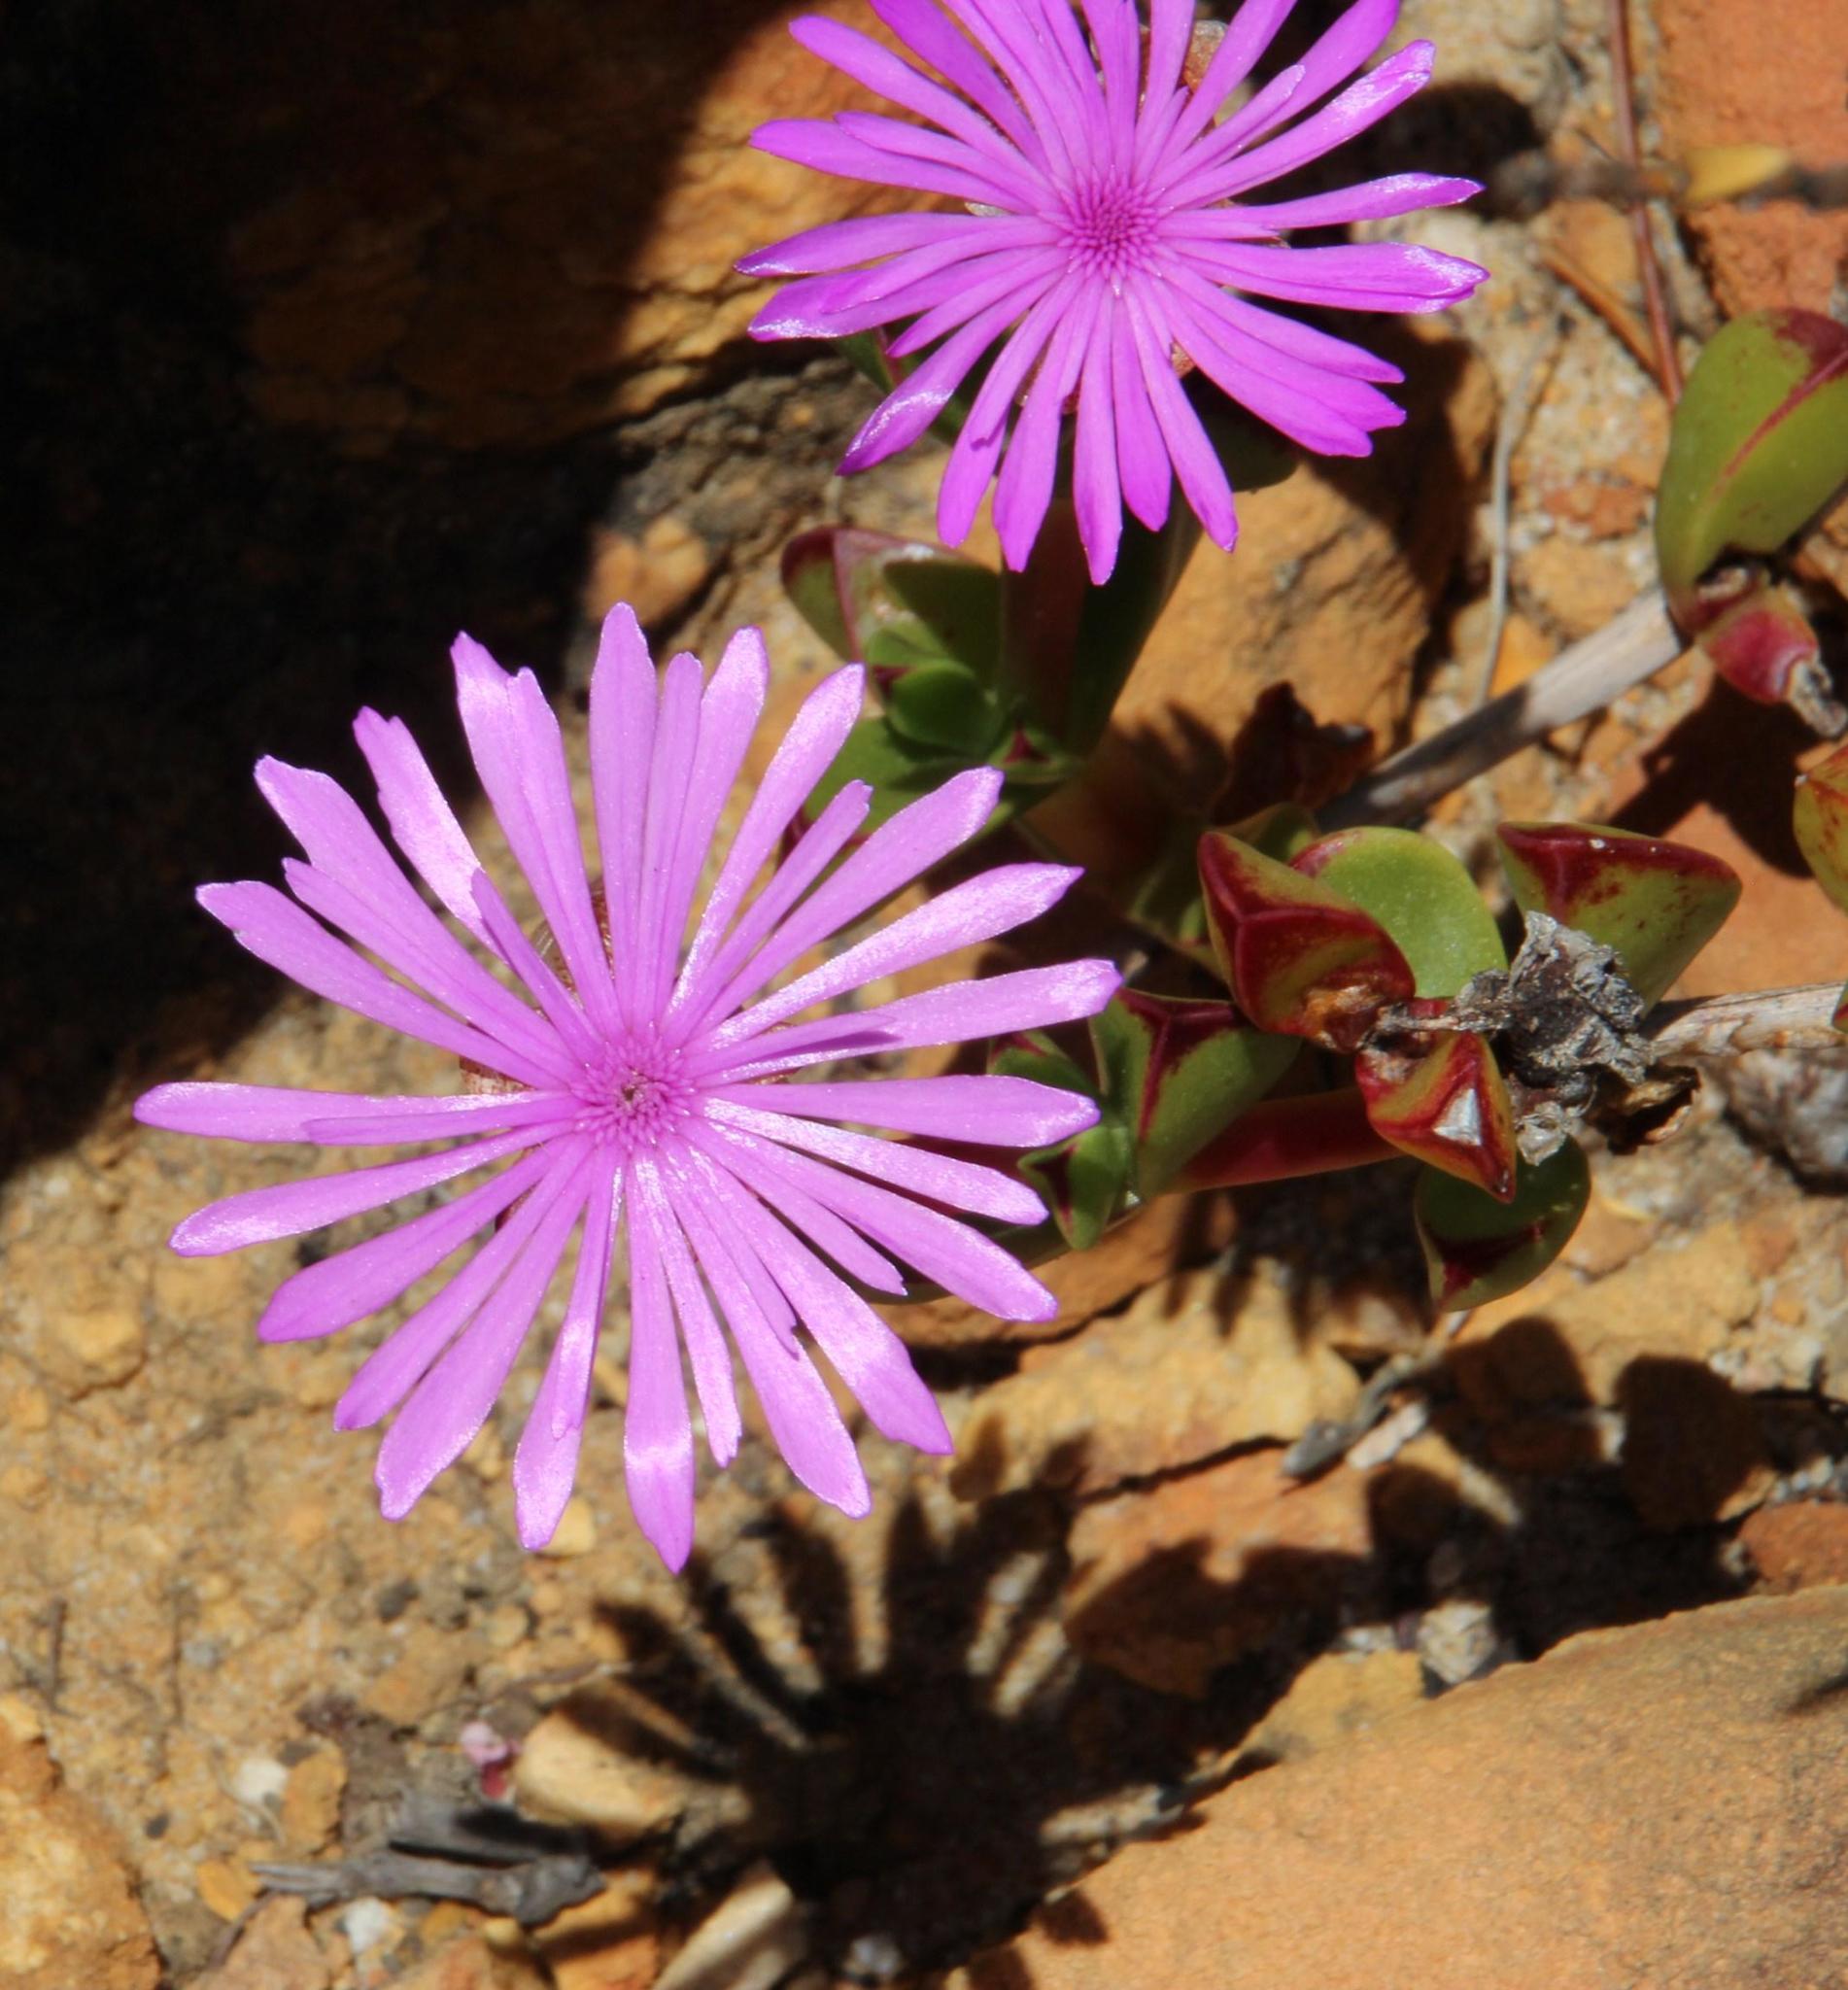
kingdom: Plantae
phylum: Tracheophyta
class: Magnoliopsida
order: Caryophyllales
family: Aizoaceae
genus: Erepsia
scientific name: Erepsia inclaudens
